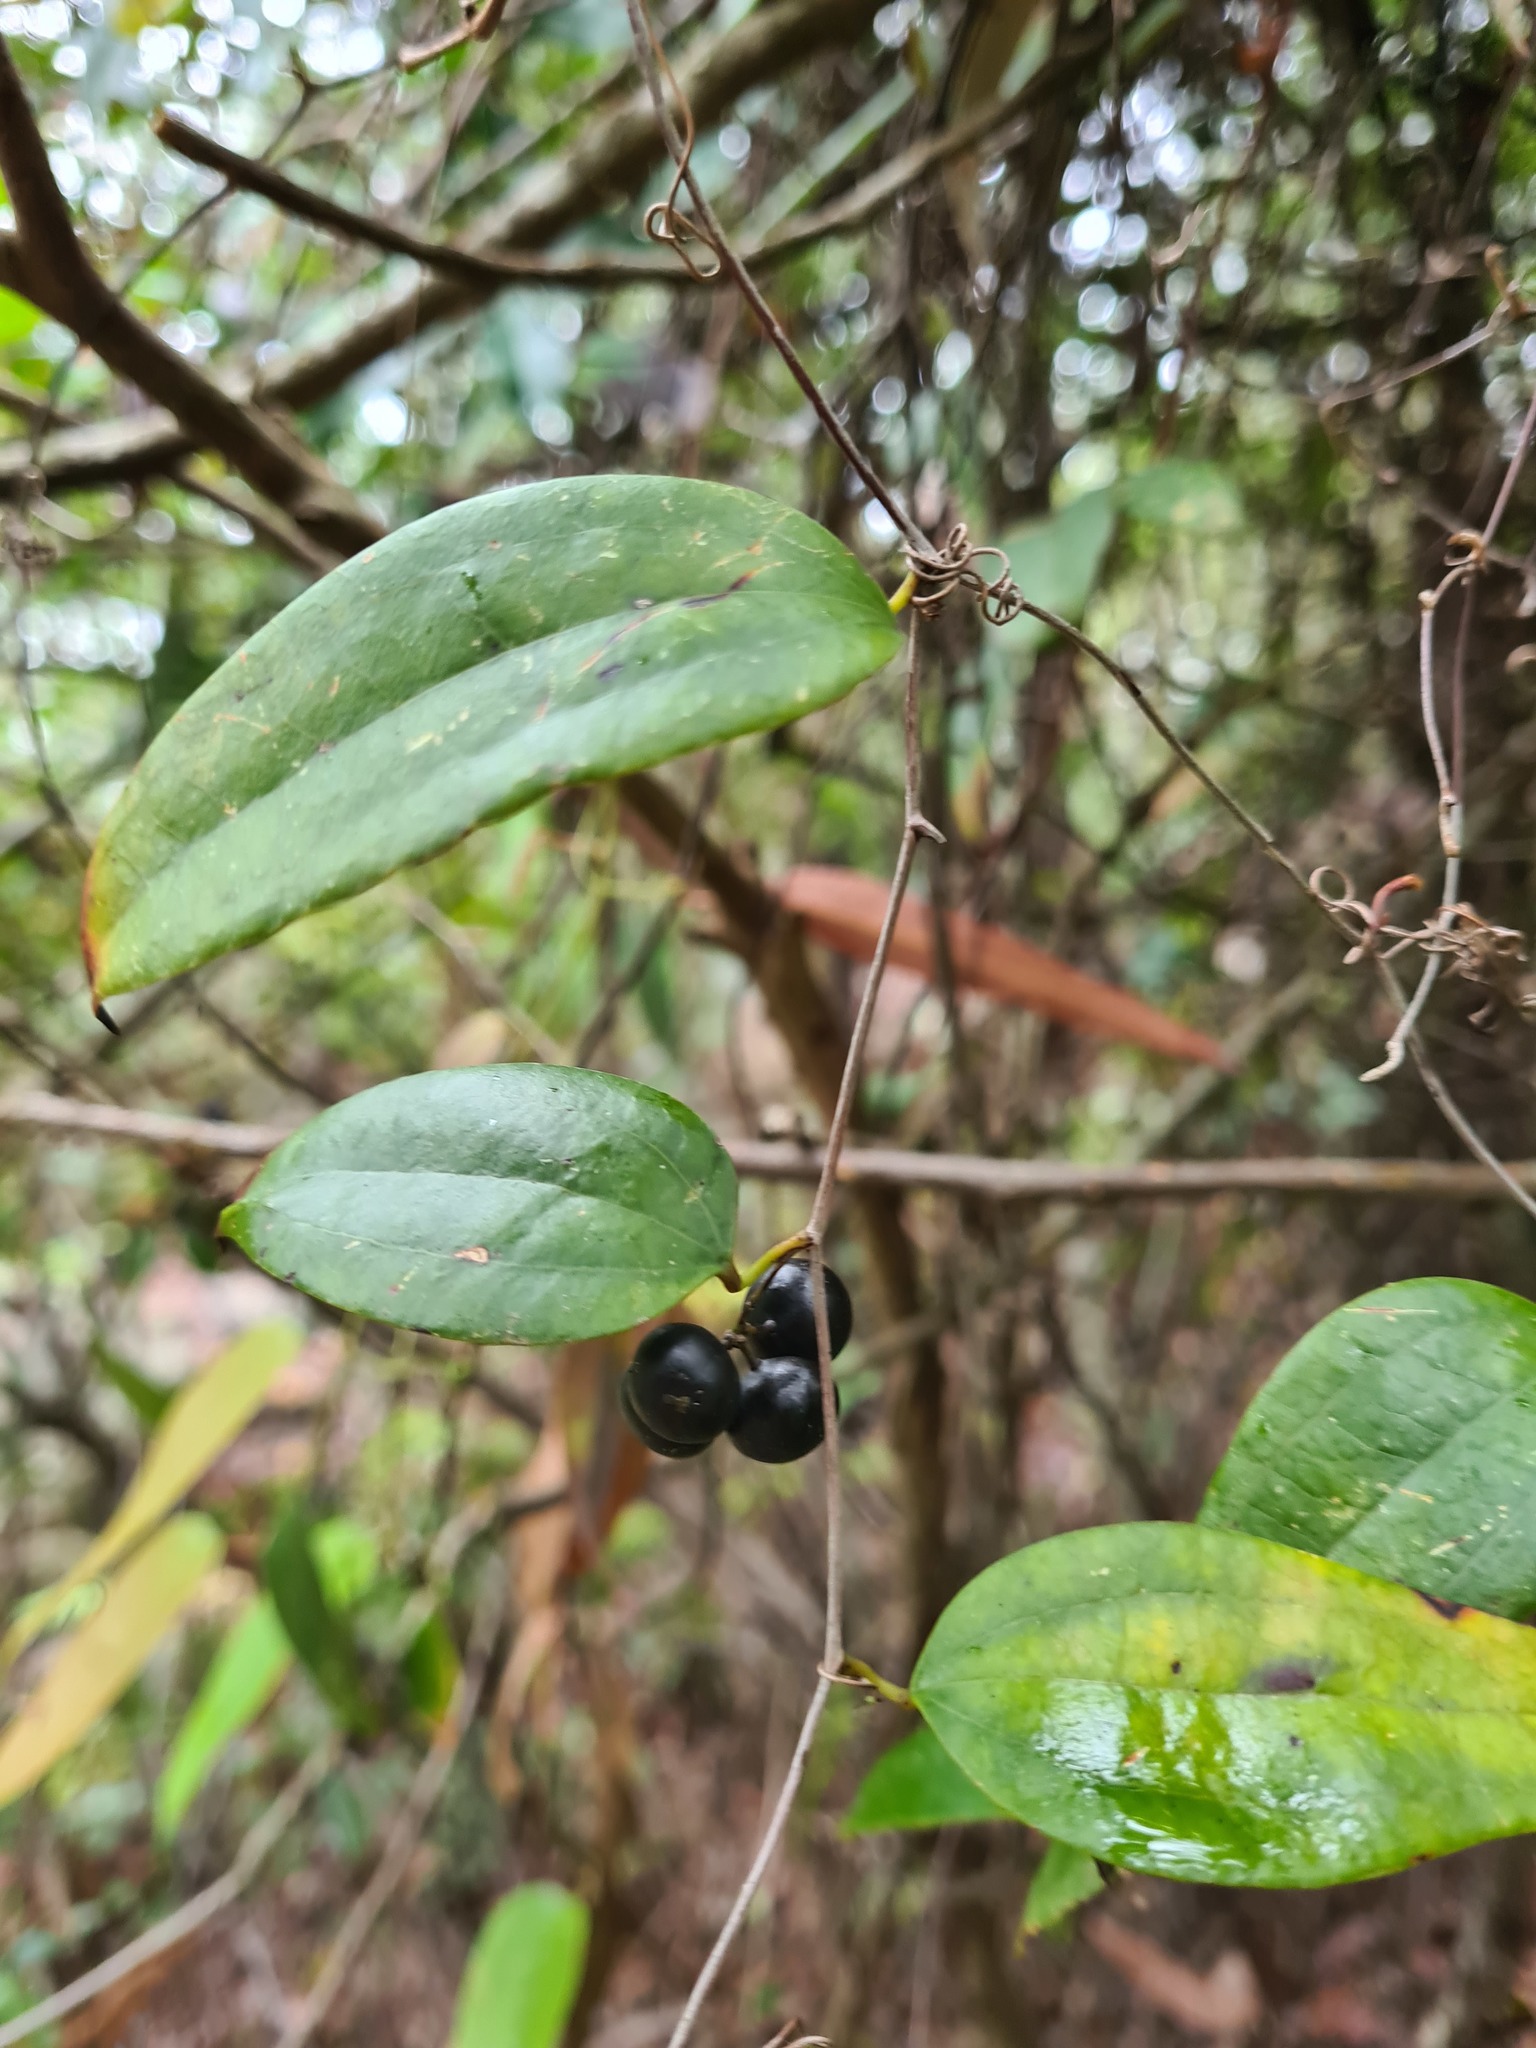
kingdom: Plantae
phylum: Tracheophyta
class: Liliopsida
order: Liliales
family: Smilacaceae
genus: Smilax
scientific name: Smilax glyciphylla
